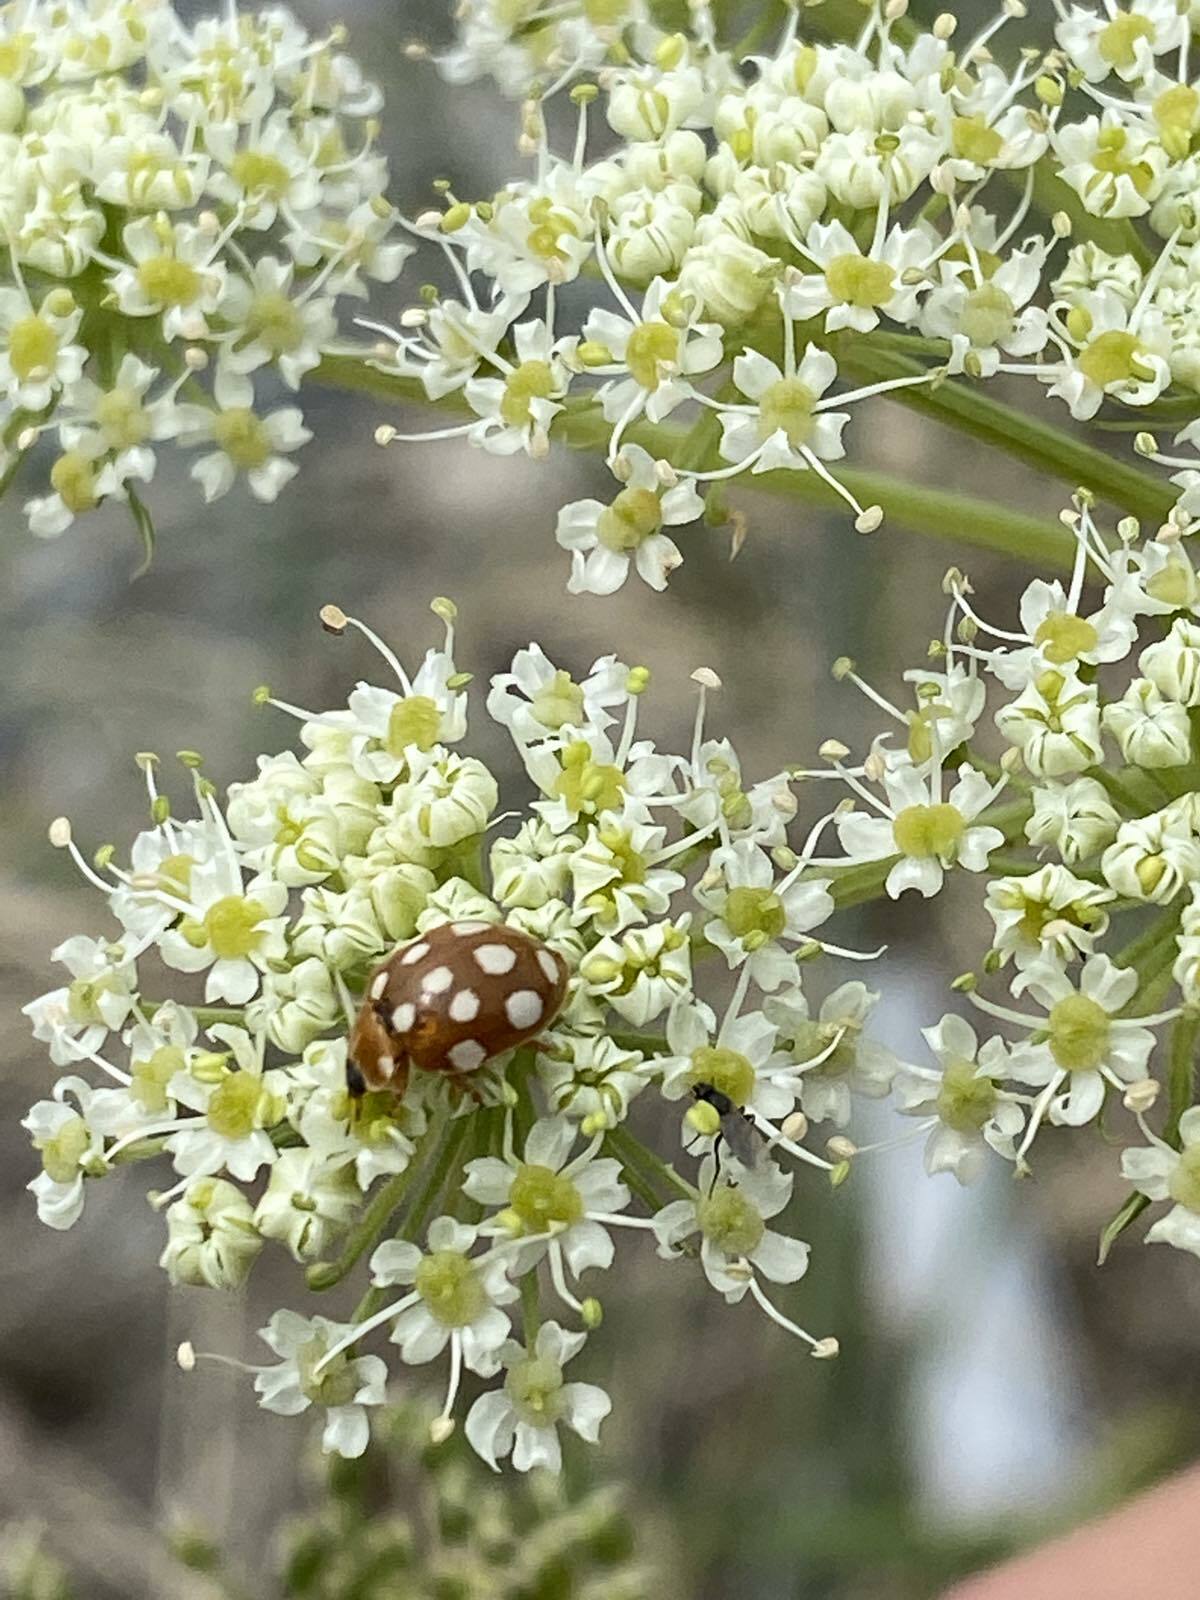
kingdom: Animalia
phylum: Arthropoda
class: Insecta
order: Coleoptera
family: Coccinellidae
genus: Calvia
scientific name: Calvia quatuordecimguttata
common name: Cream-spot ladybird
